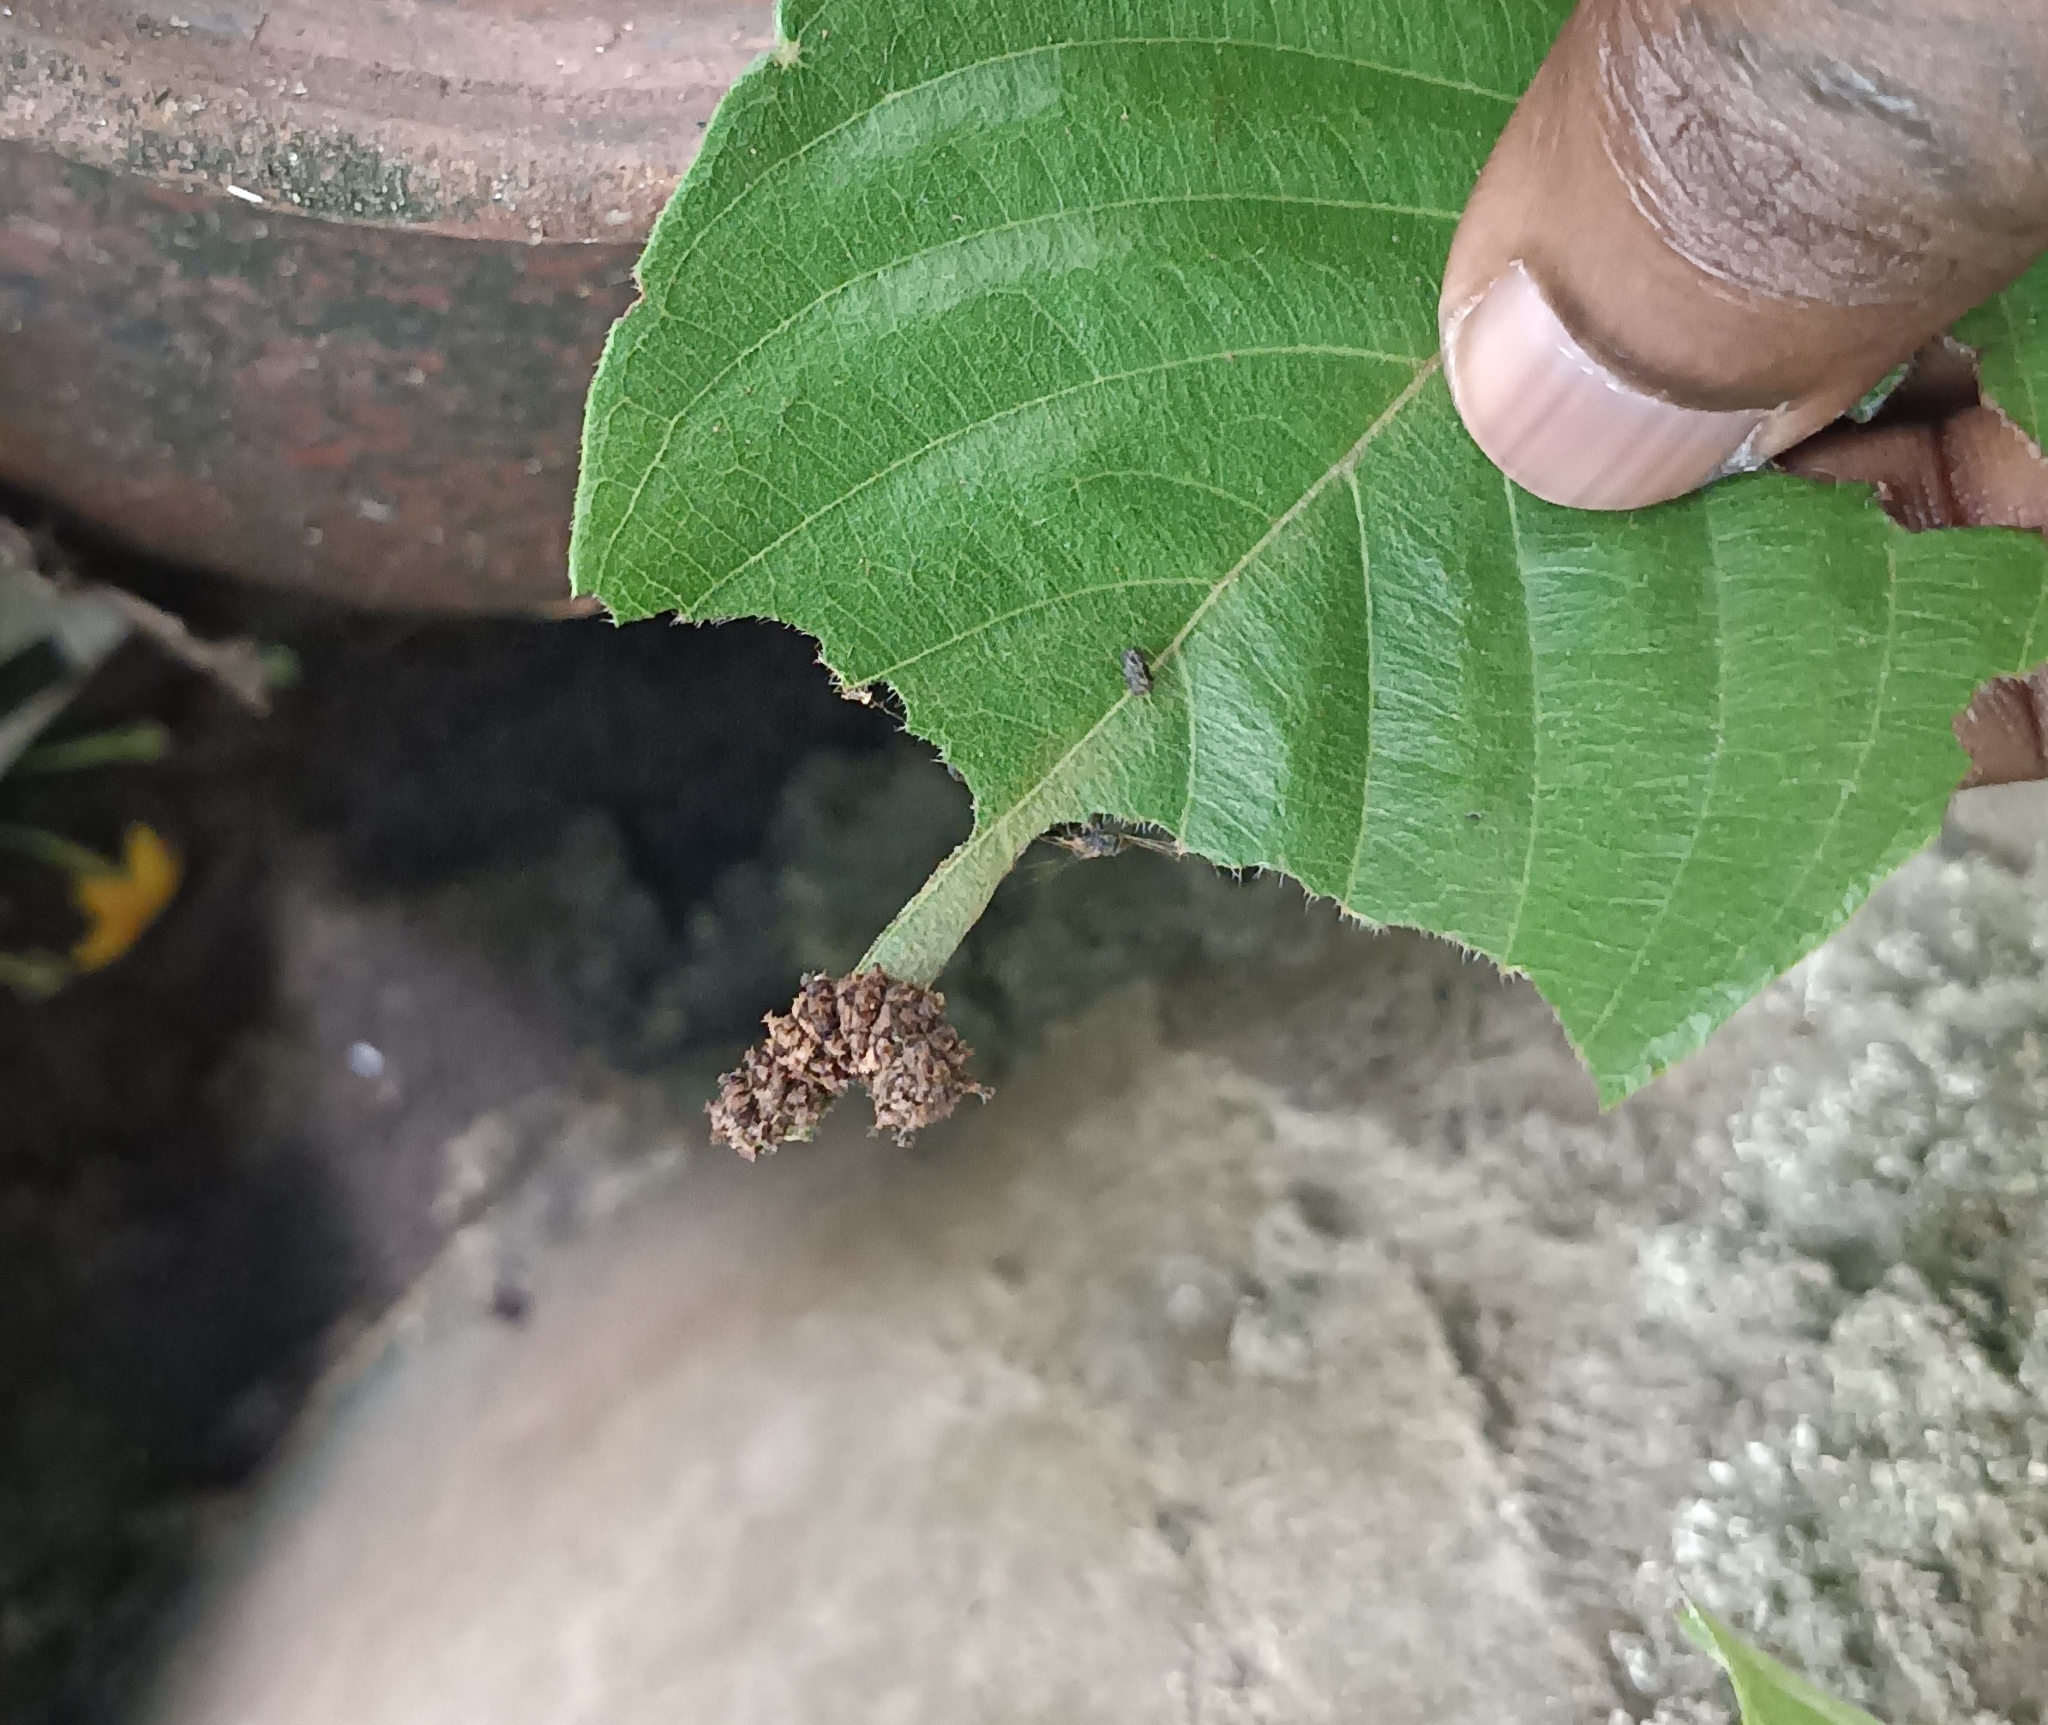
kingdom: Animalia
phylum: Arthropoda
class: Insecta
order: Lepidoptera
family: Nymphalidae
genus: Limenitis
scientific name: Limenitis Moduza procris
